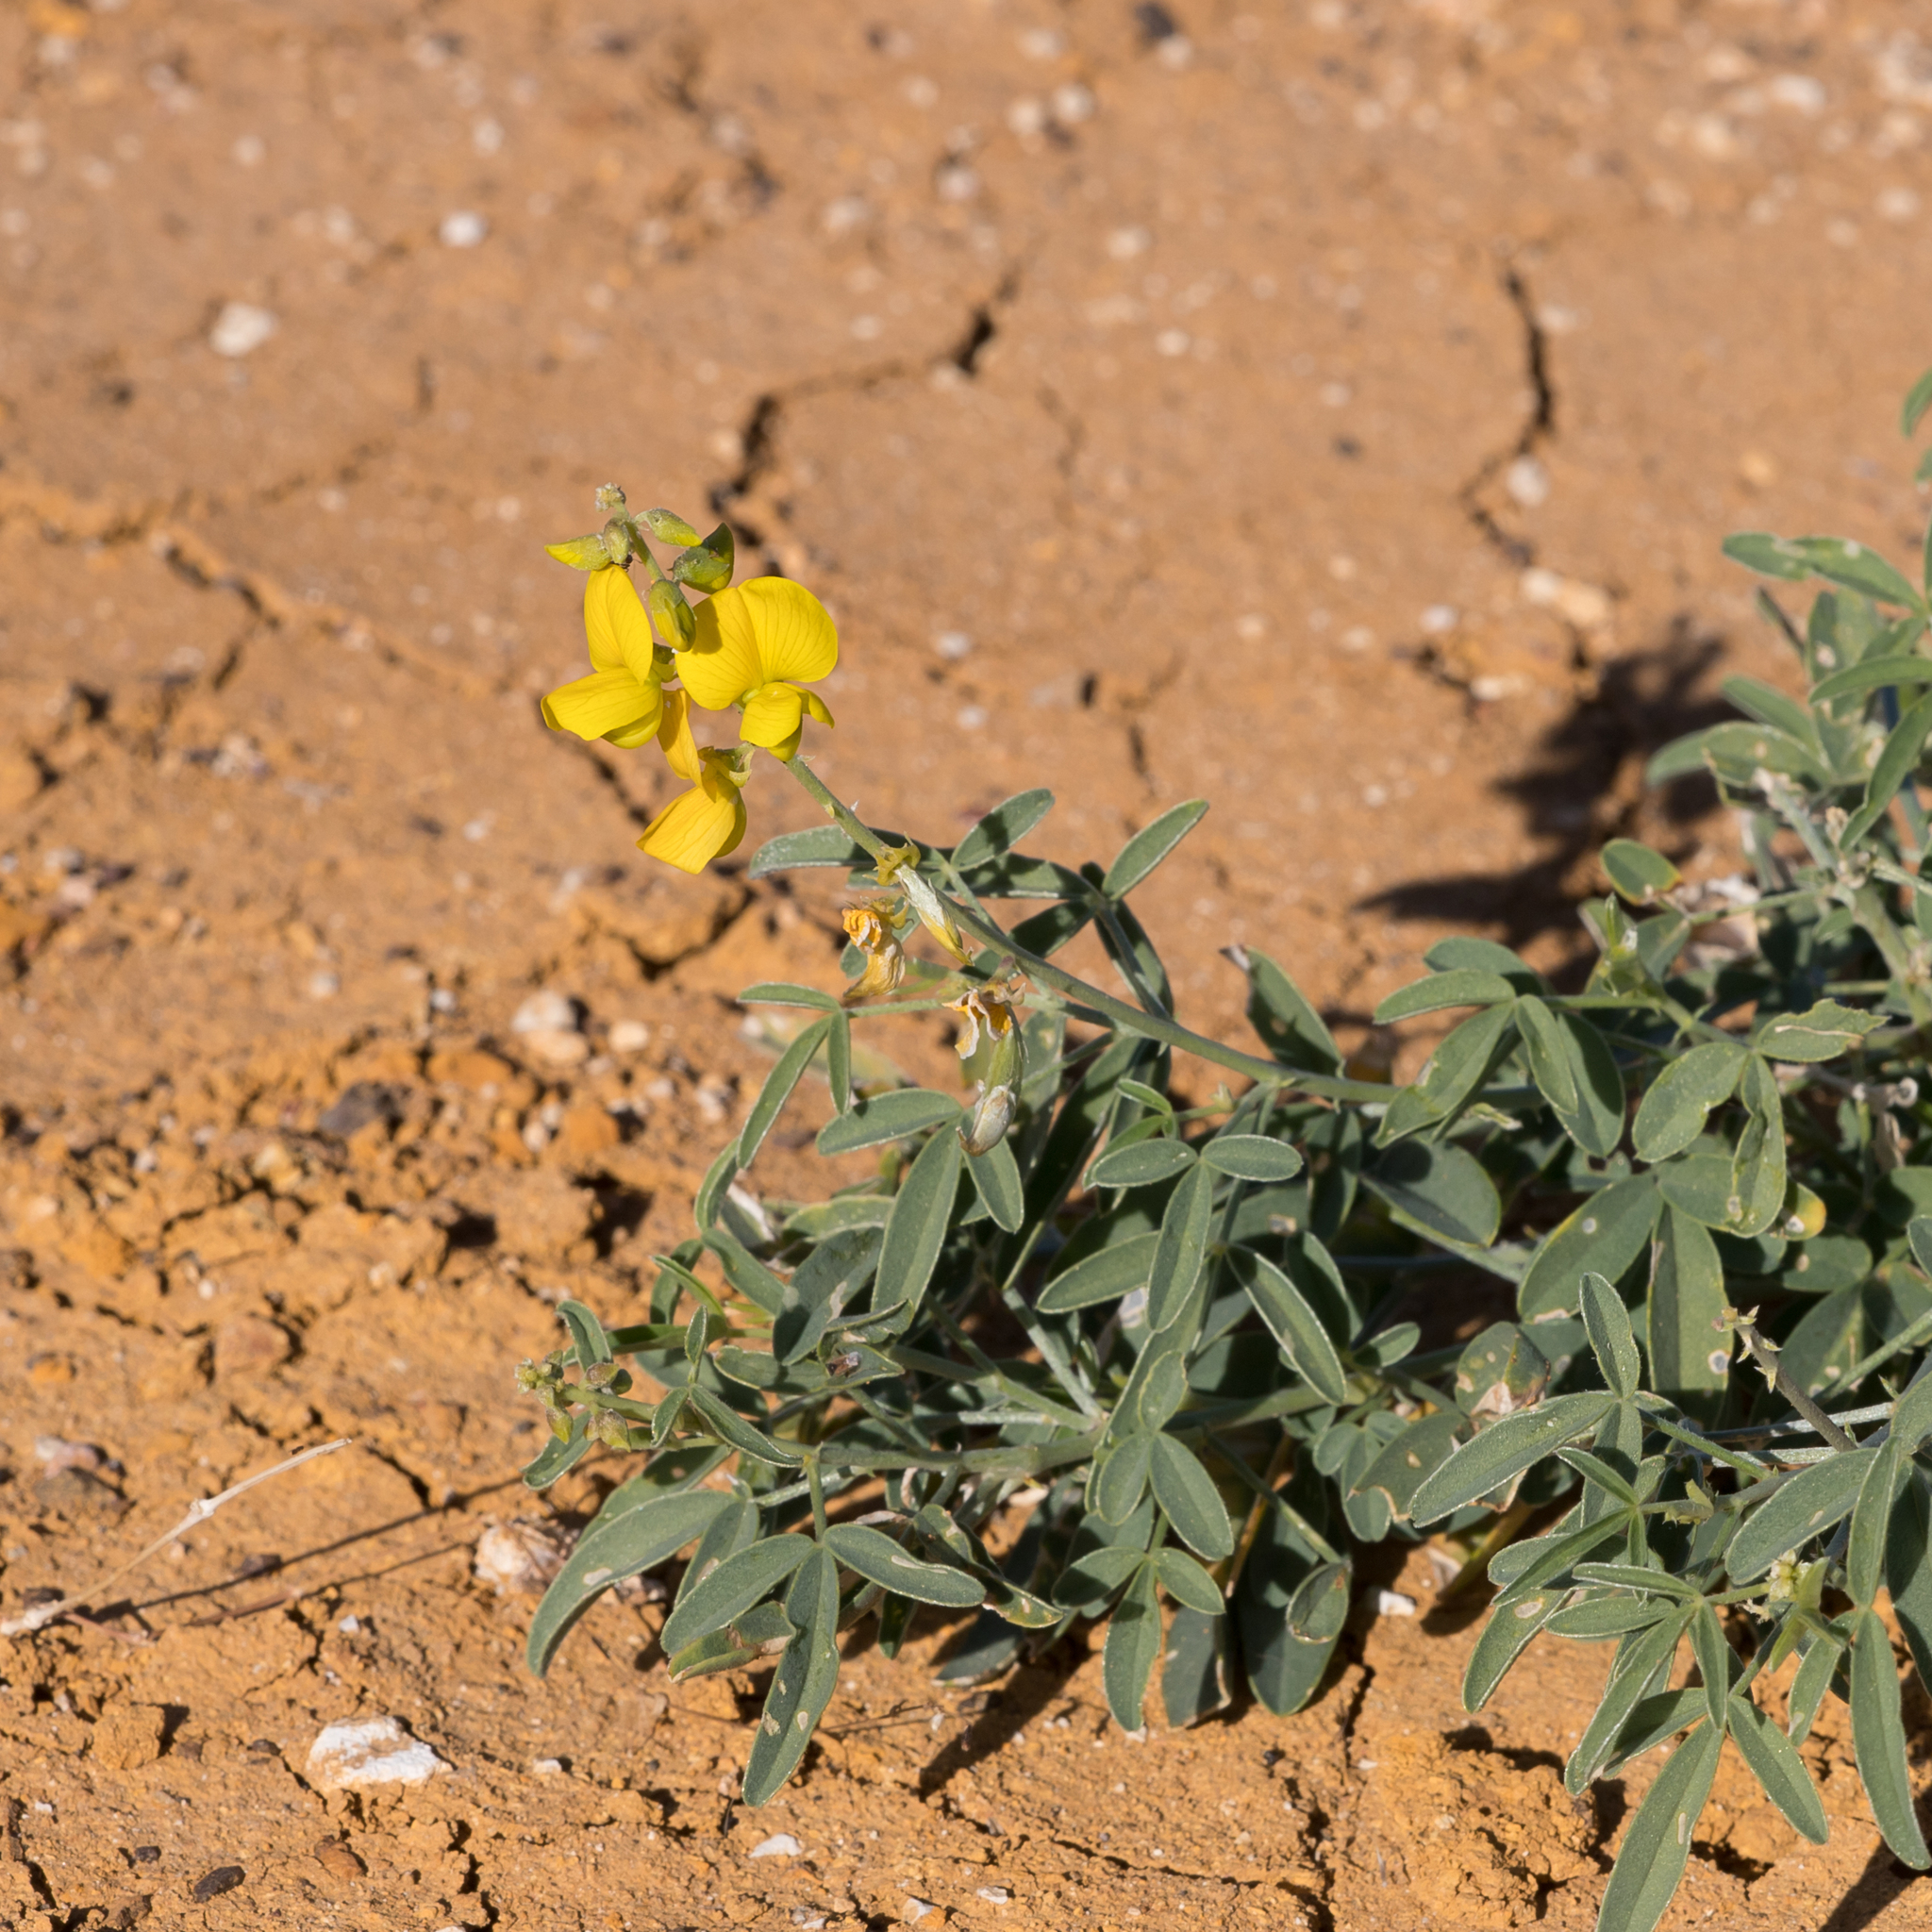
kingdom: Plantae
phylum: Tracheophyta
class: Magnoliopsida
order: Fabales
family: Fabaceae
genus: Crotalaria
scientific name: Crotalaria dissitiflora
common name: Grey rattlepod
